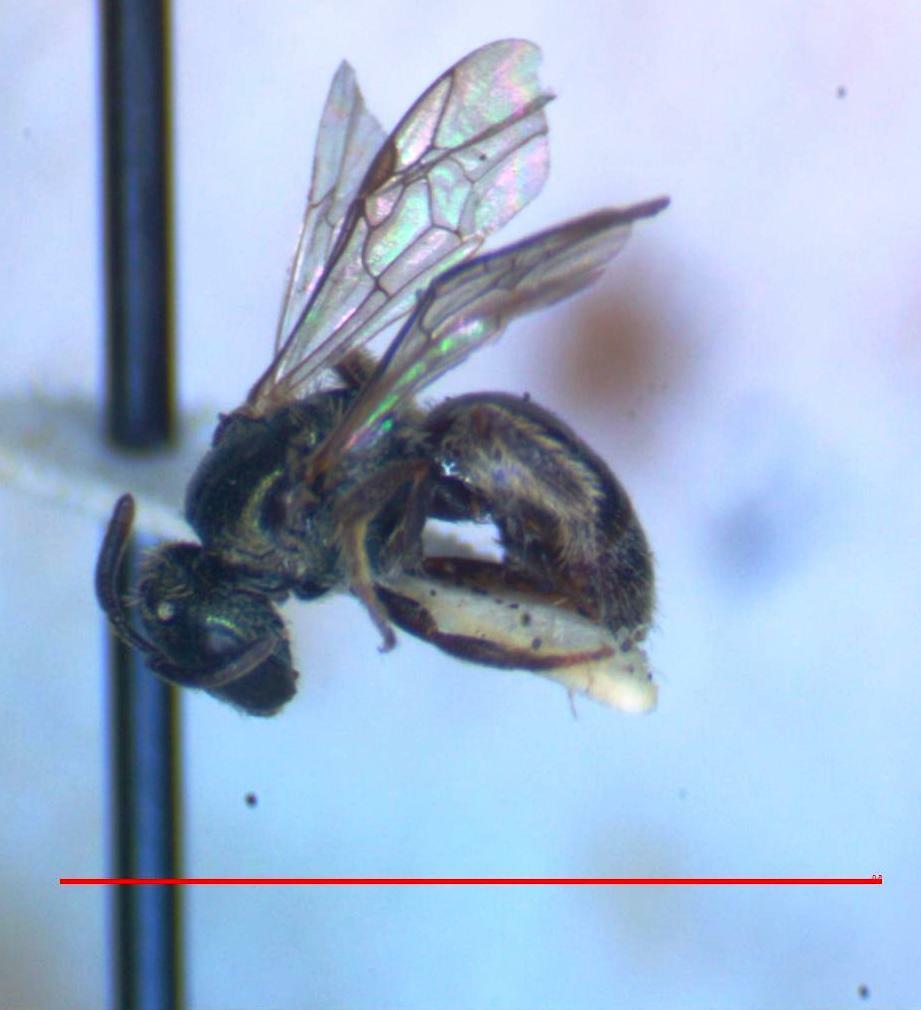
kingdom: Animalia
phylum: Arthropoda
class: Insecta
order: Hymenoptera
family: Halictidae
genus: Dialictus
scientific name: Dialictus
